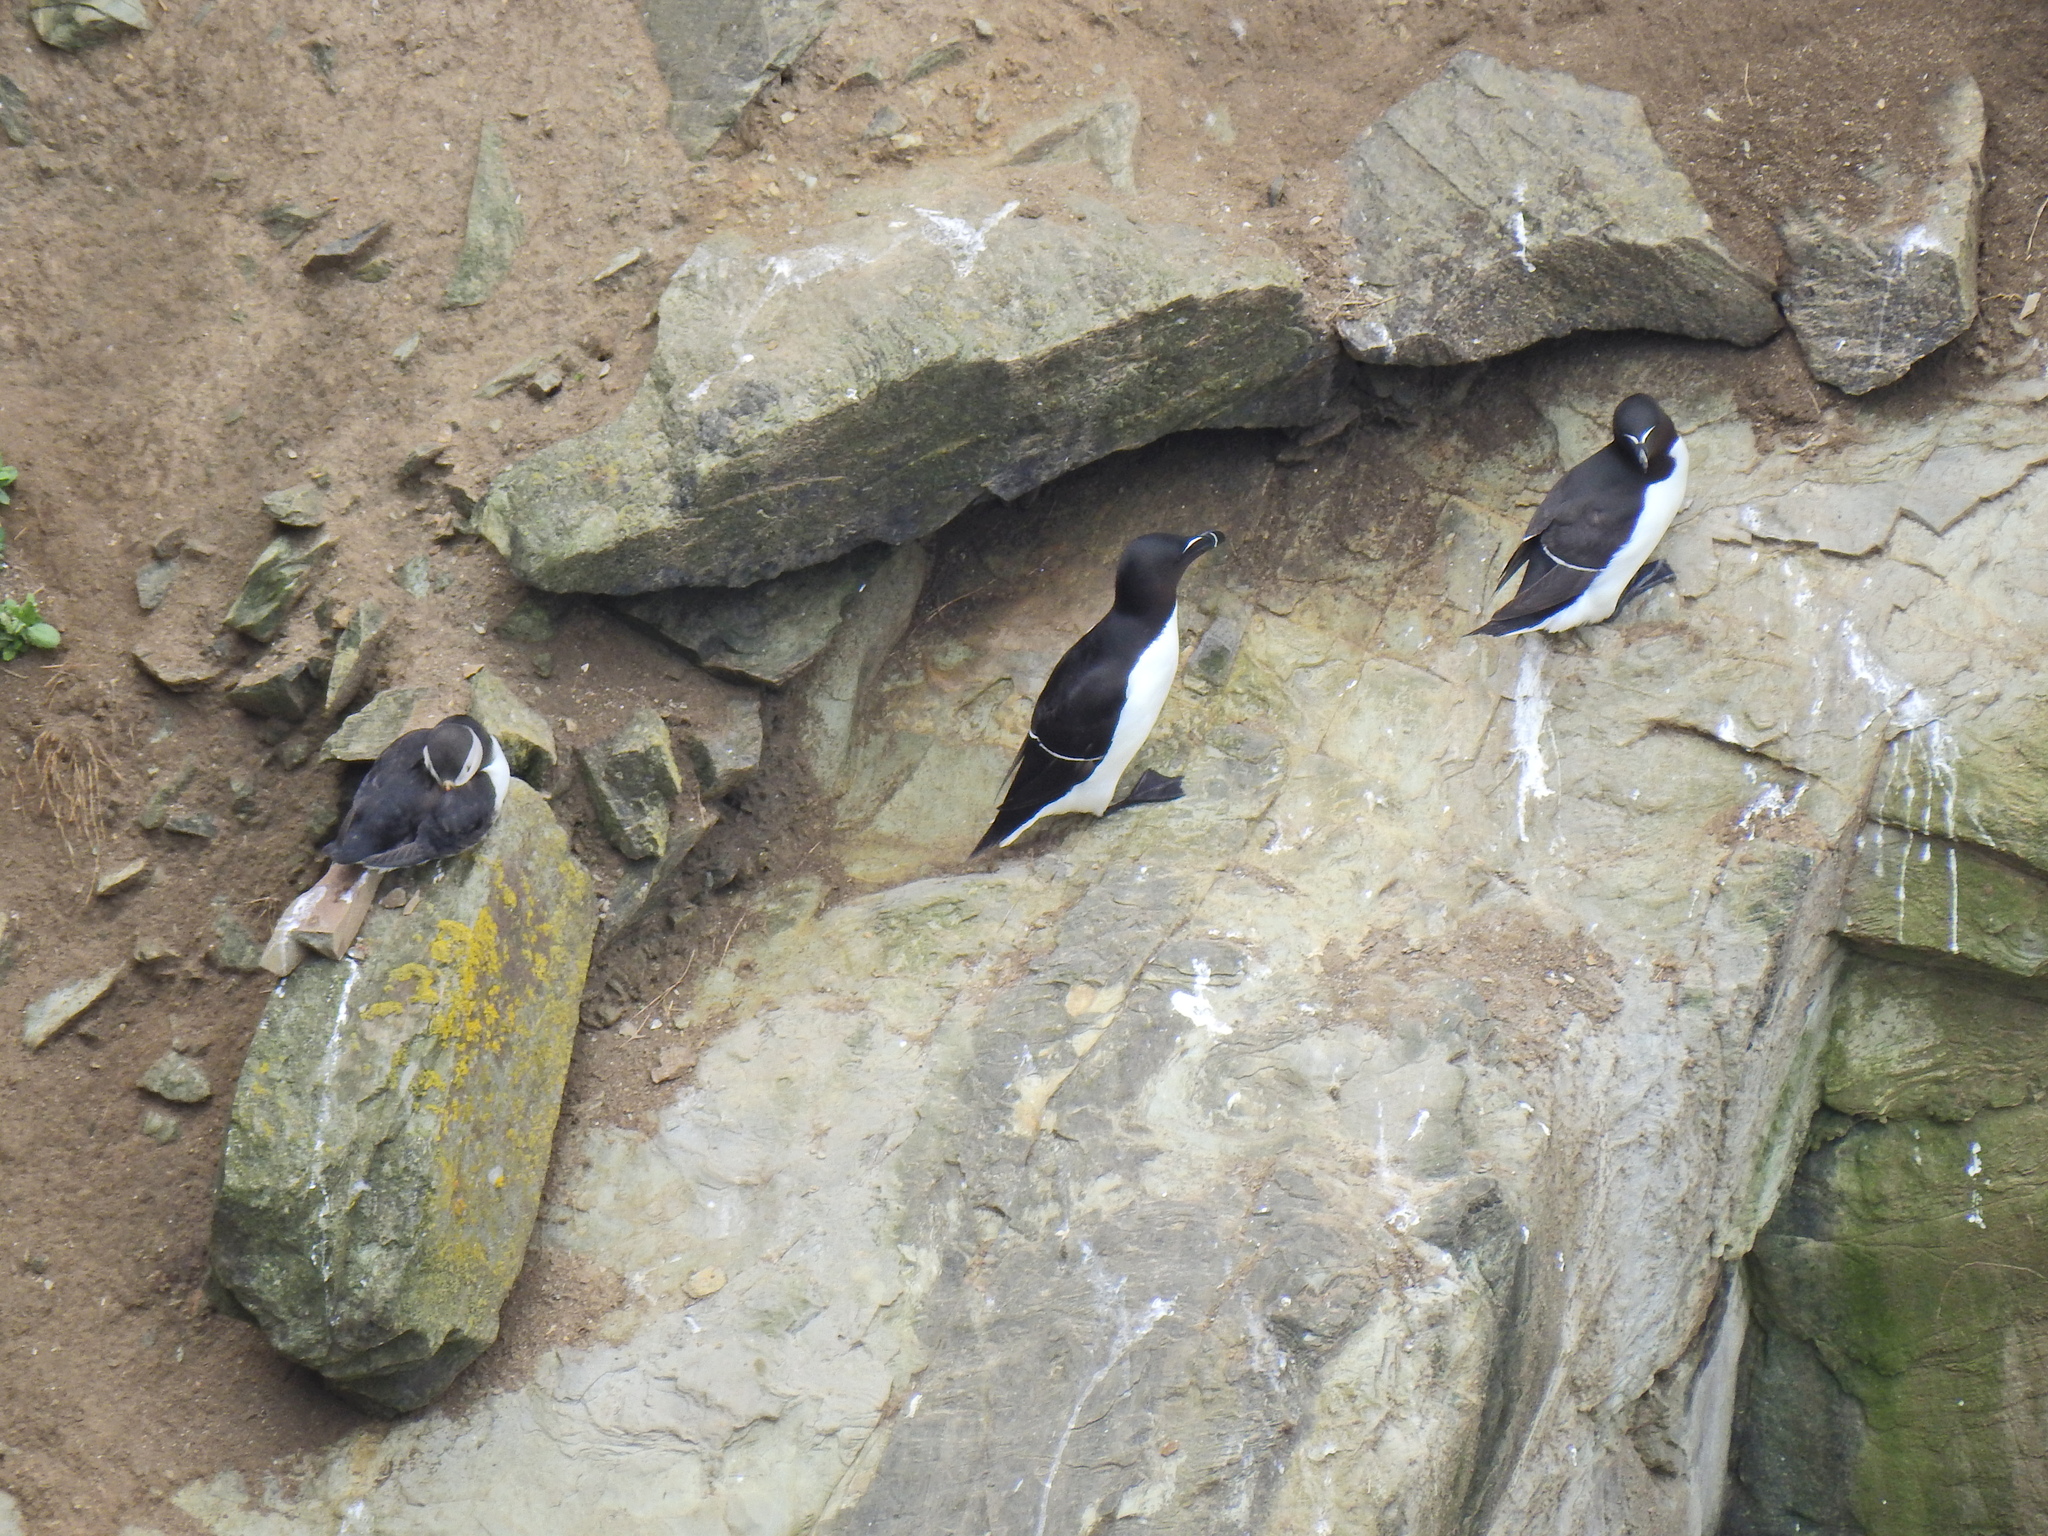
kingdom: Animalia
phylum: Chordata
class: Aves
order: Charadriiformes
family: Alcidae
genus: Alca
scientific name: Alca torda
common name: Razorbill
